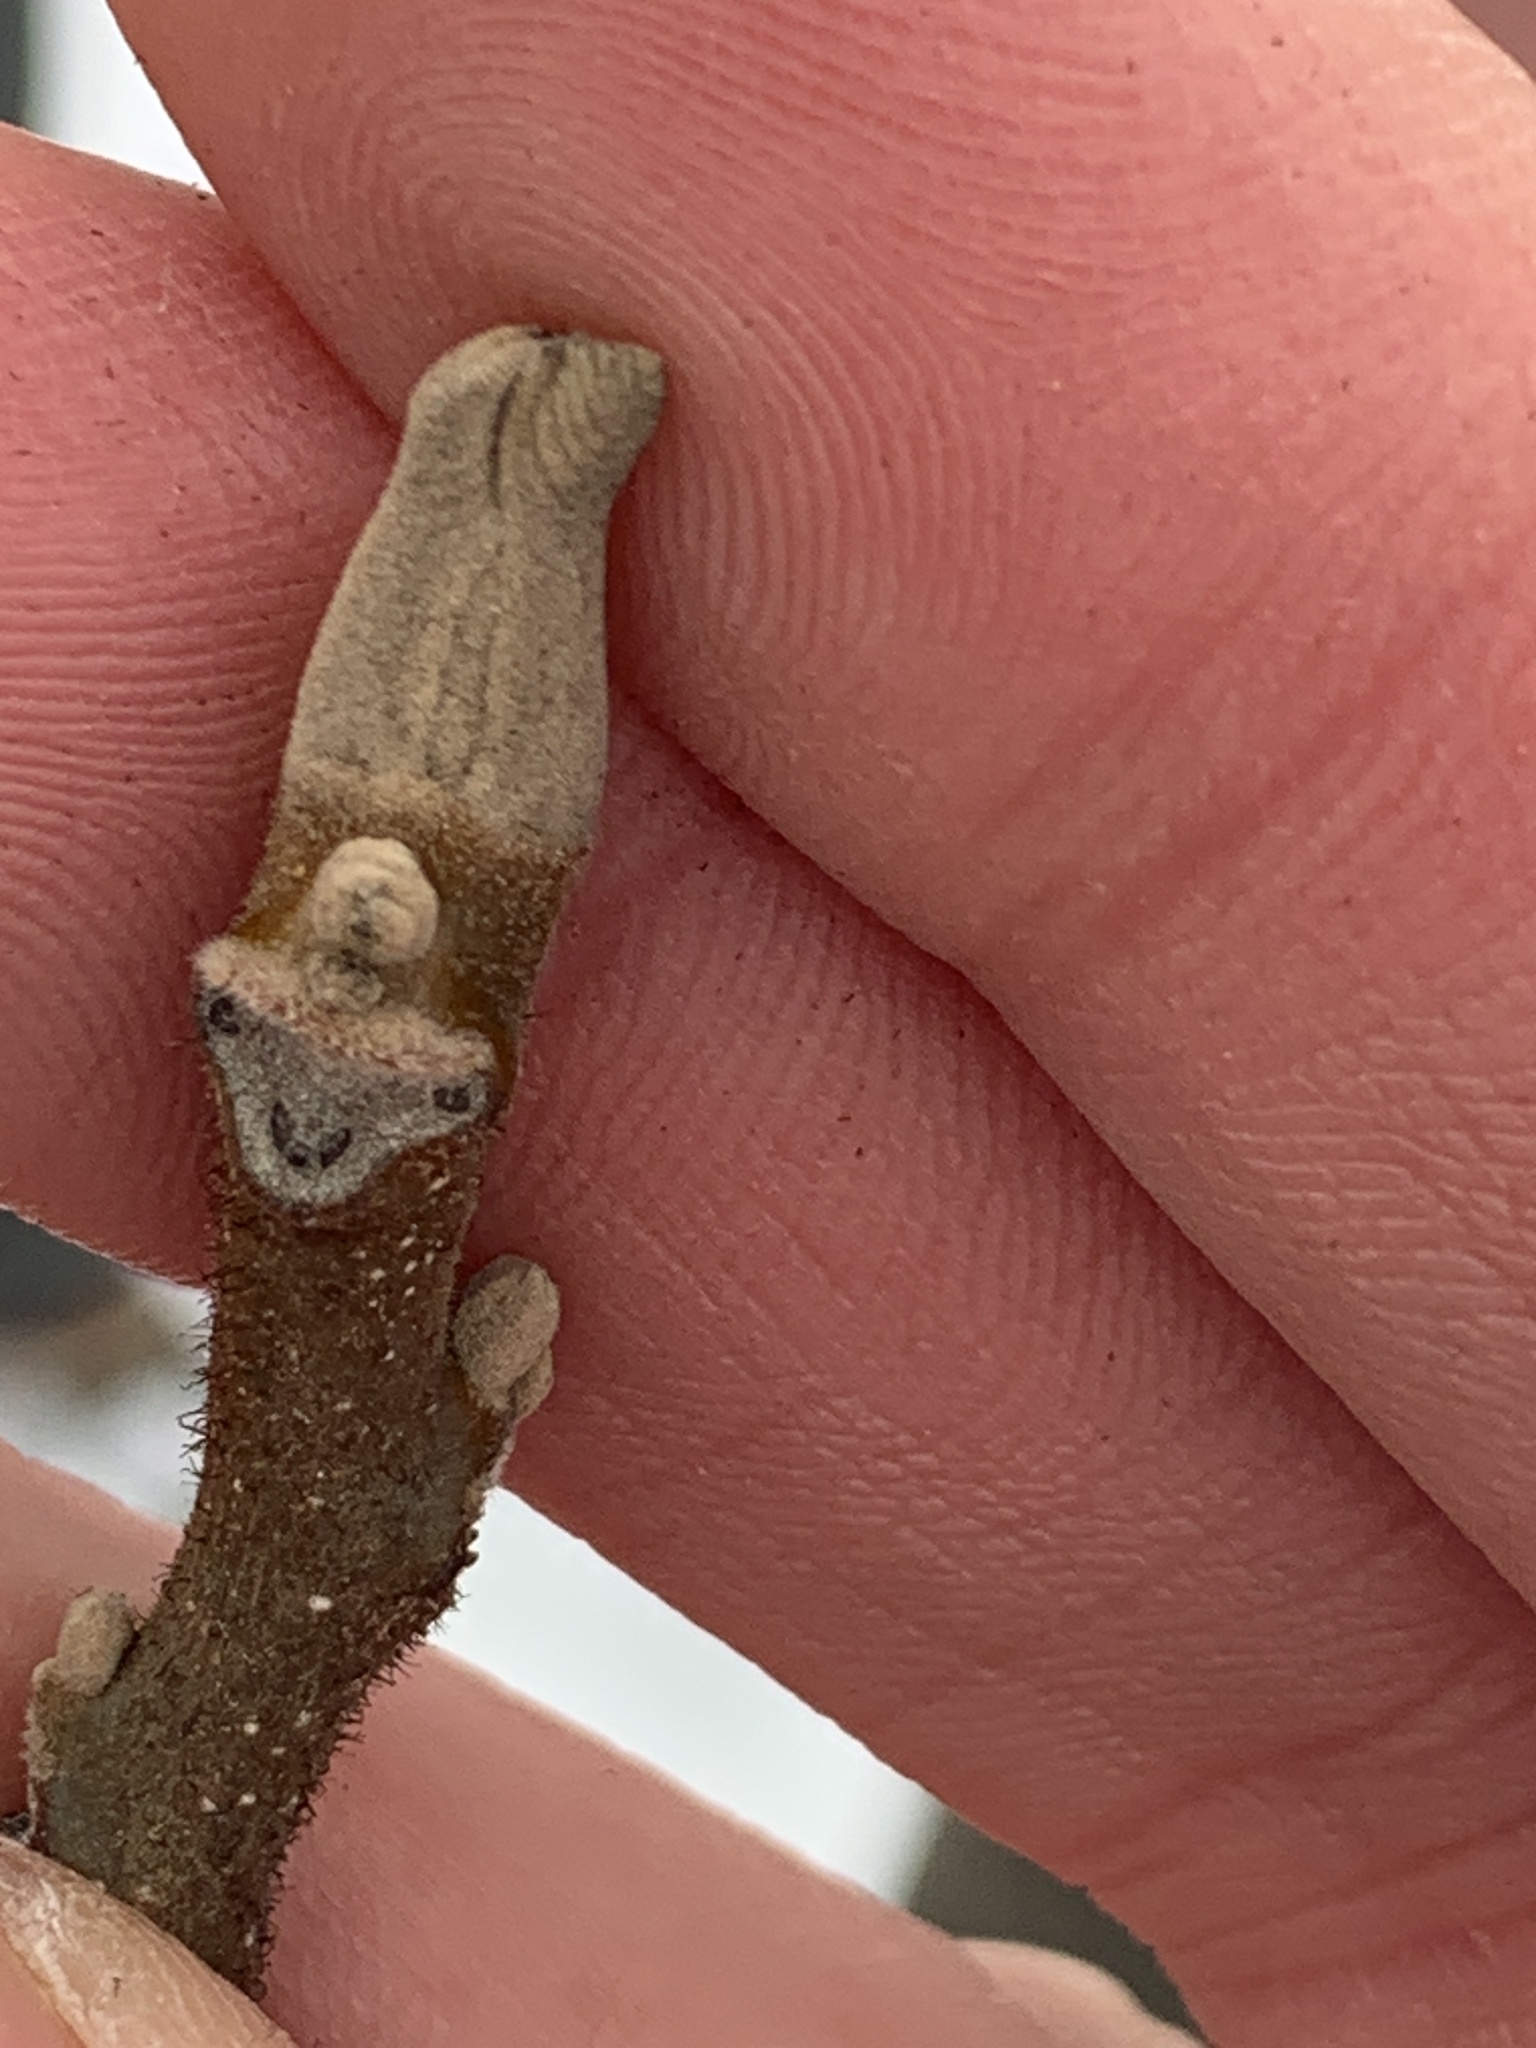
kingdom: Plantae
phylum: Tracheophyta
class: Magnoliopsida
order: Fagales
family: Juglandaceae
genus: Juglans
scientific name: Juglans cinerea
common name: Butternut
